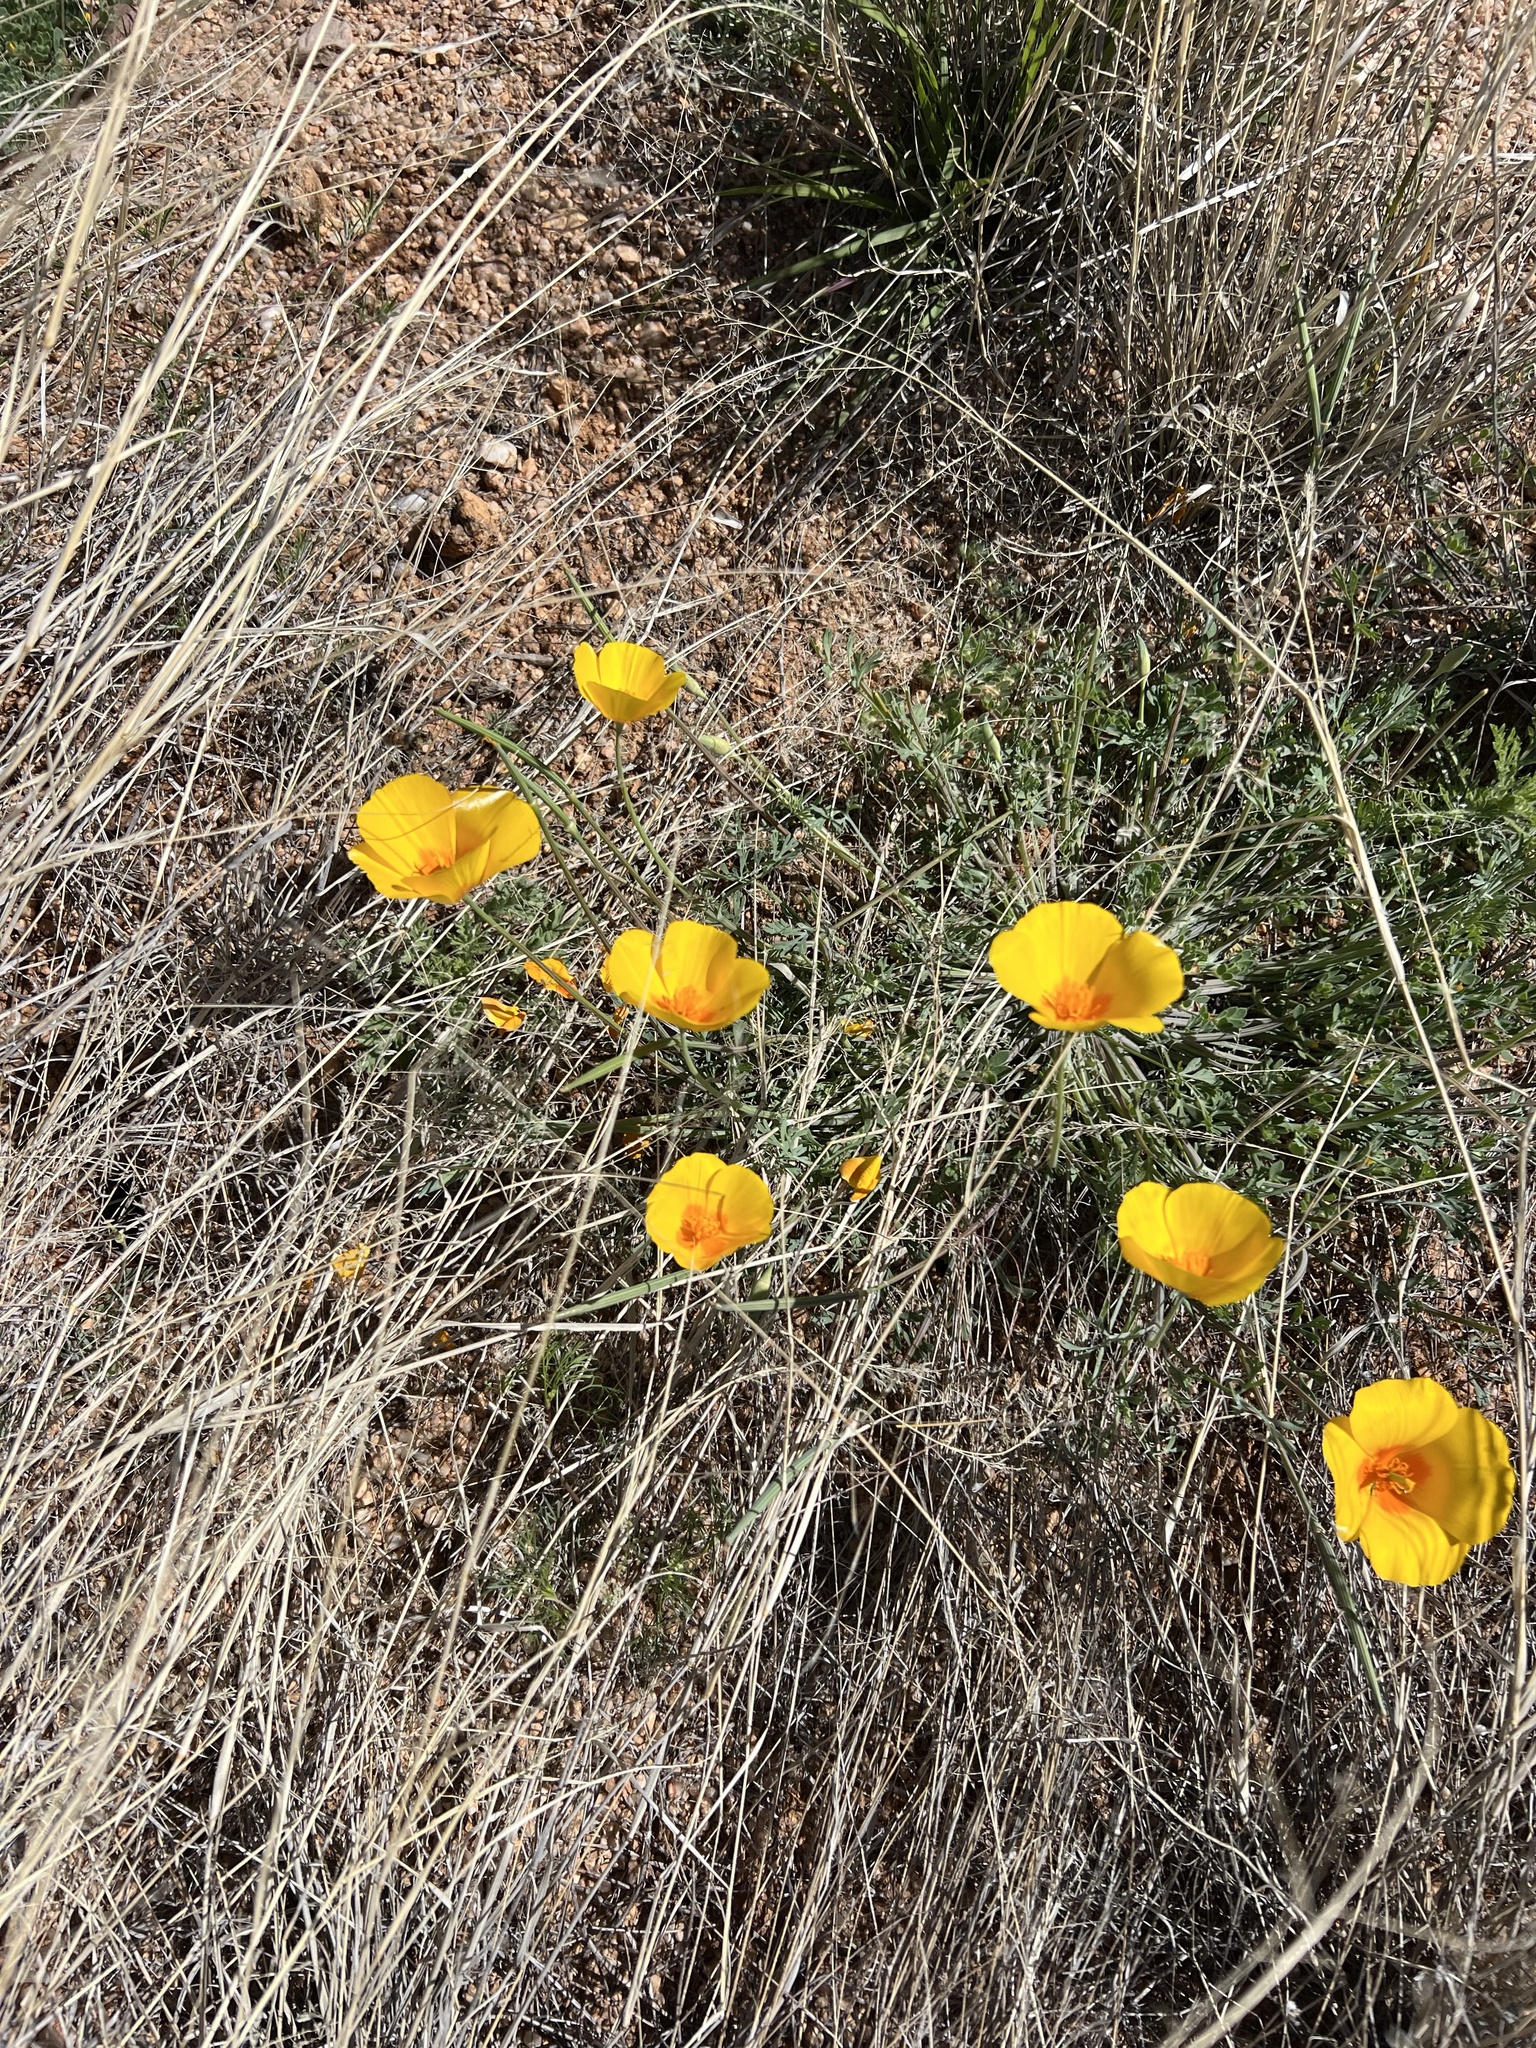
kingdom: Plantae
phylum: Tracheophyta
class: Magnoliopsida
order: Ranunculales
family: Papaveraceae
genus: Eschscholzia
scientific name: Eschscholzia californica
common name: California poppy
